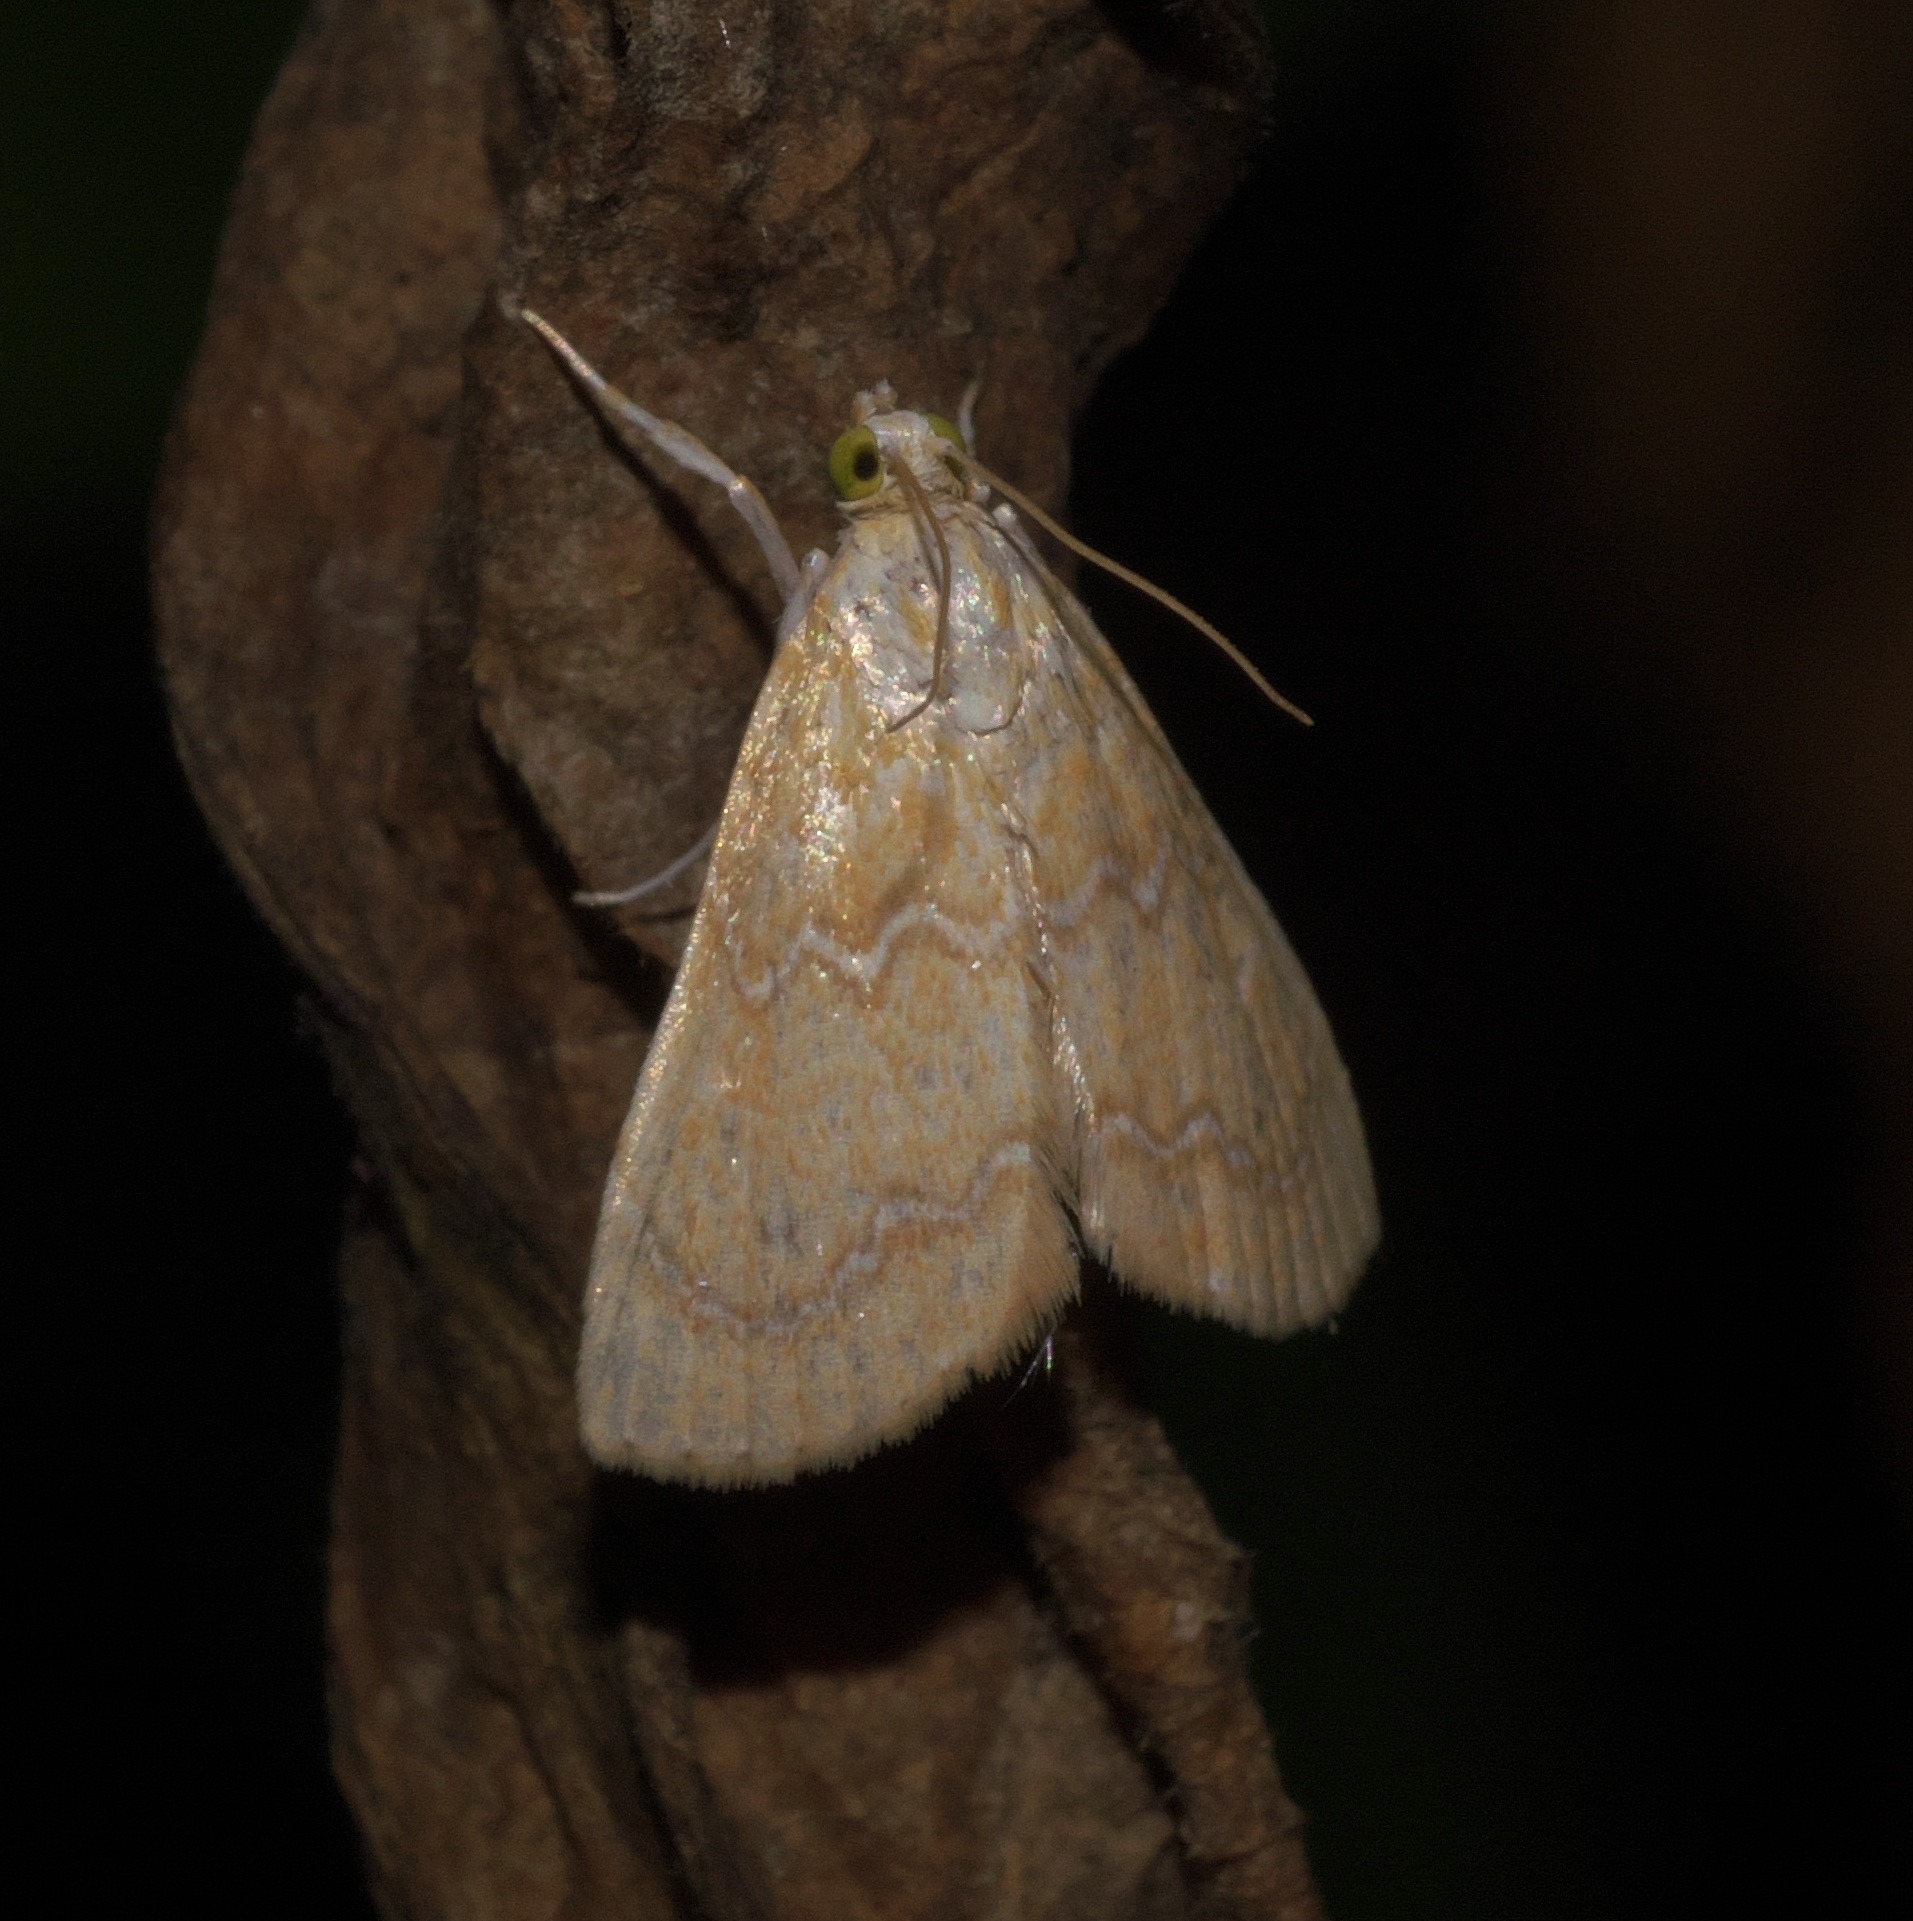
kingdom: Animalia
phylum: Arthropoda
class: Insecta
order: Lepidoptera
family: Crambidae
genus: Glaphyria
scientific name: Glaphyria sesquistrialis
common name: White-roped glaphyria
